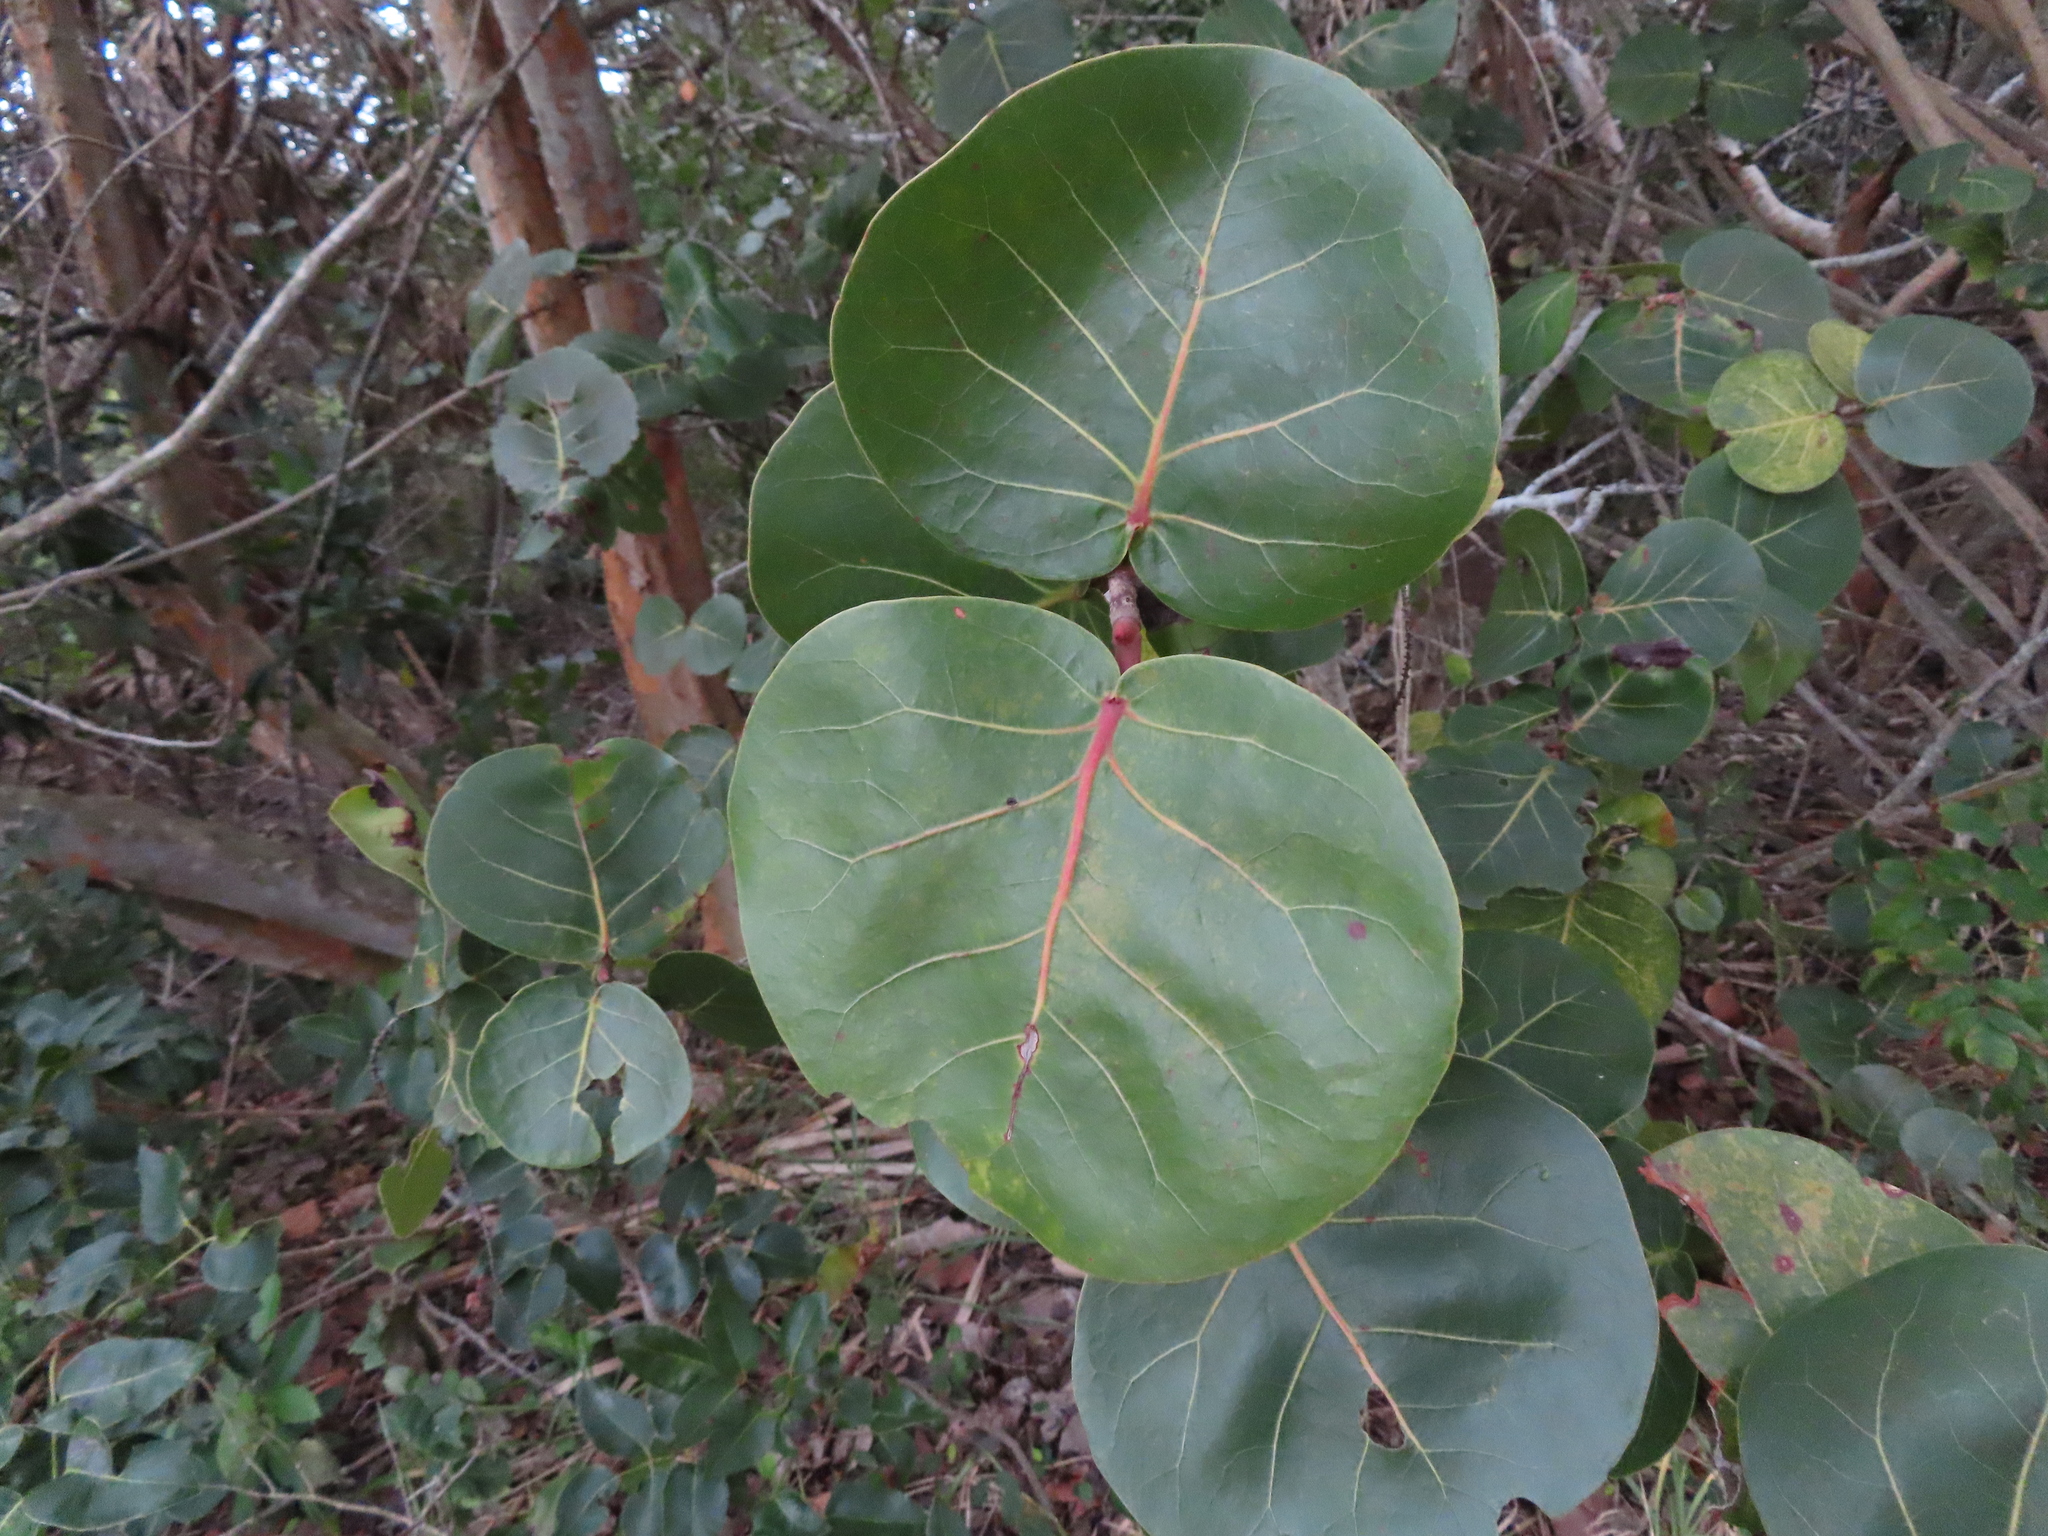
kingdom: Plantae
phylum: Tracheophyta
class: Magnoliopsida
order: Caryophyllales
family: Polygonaceae
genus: Coccoloba
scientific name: Coccoloba uvifera
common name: Seagrape
